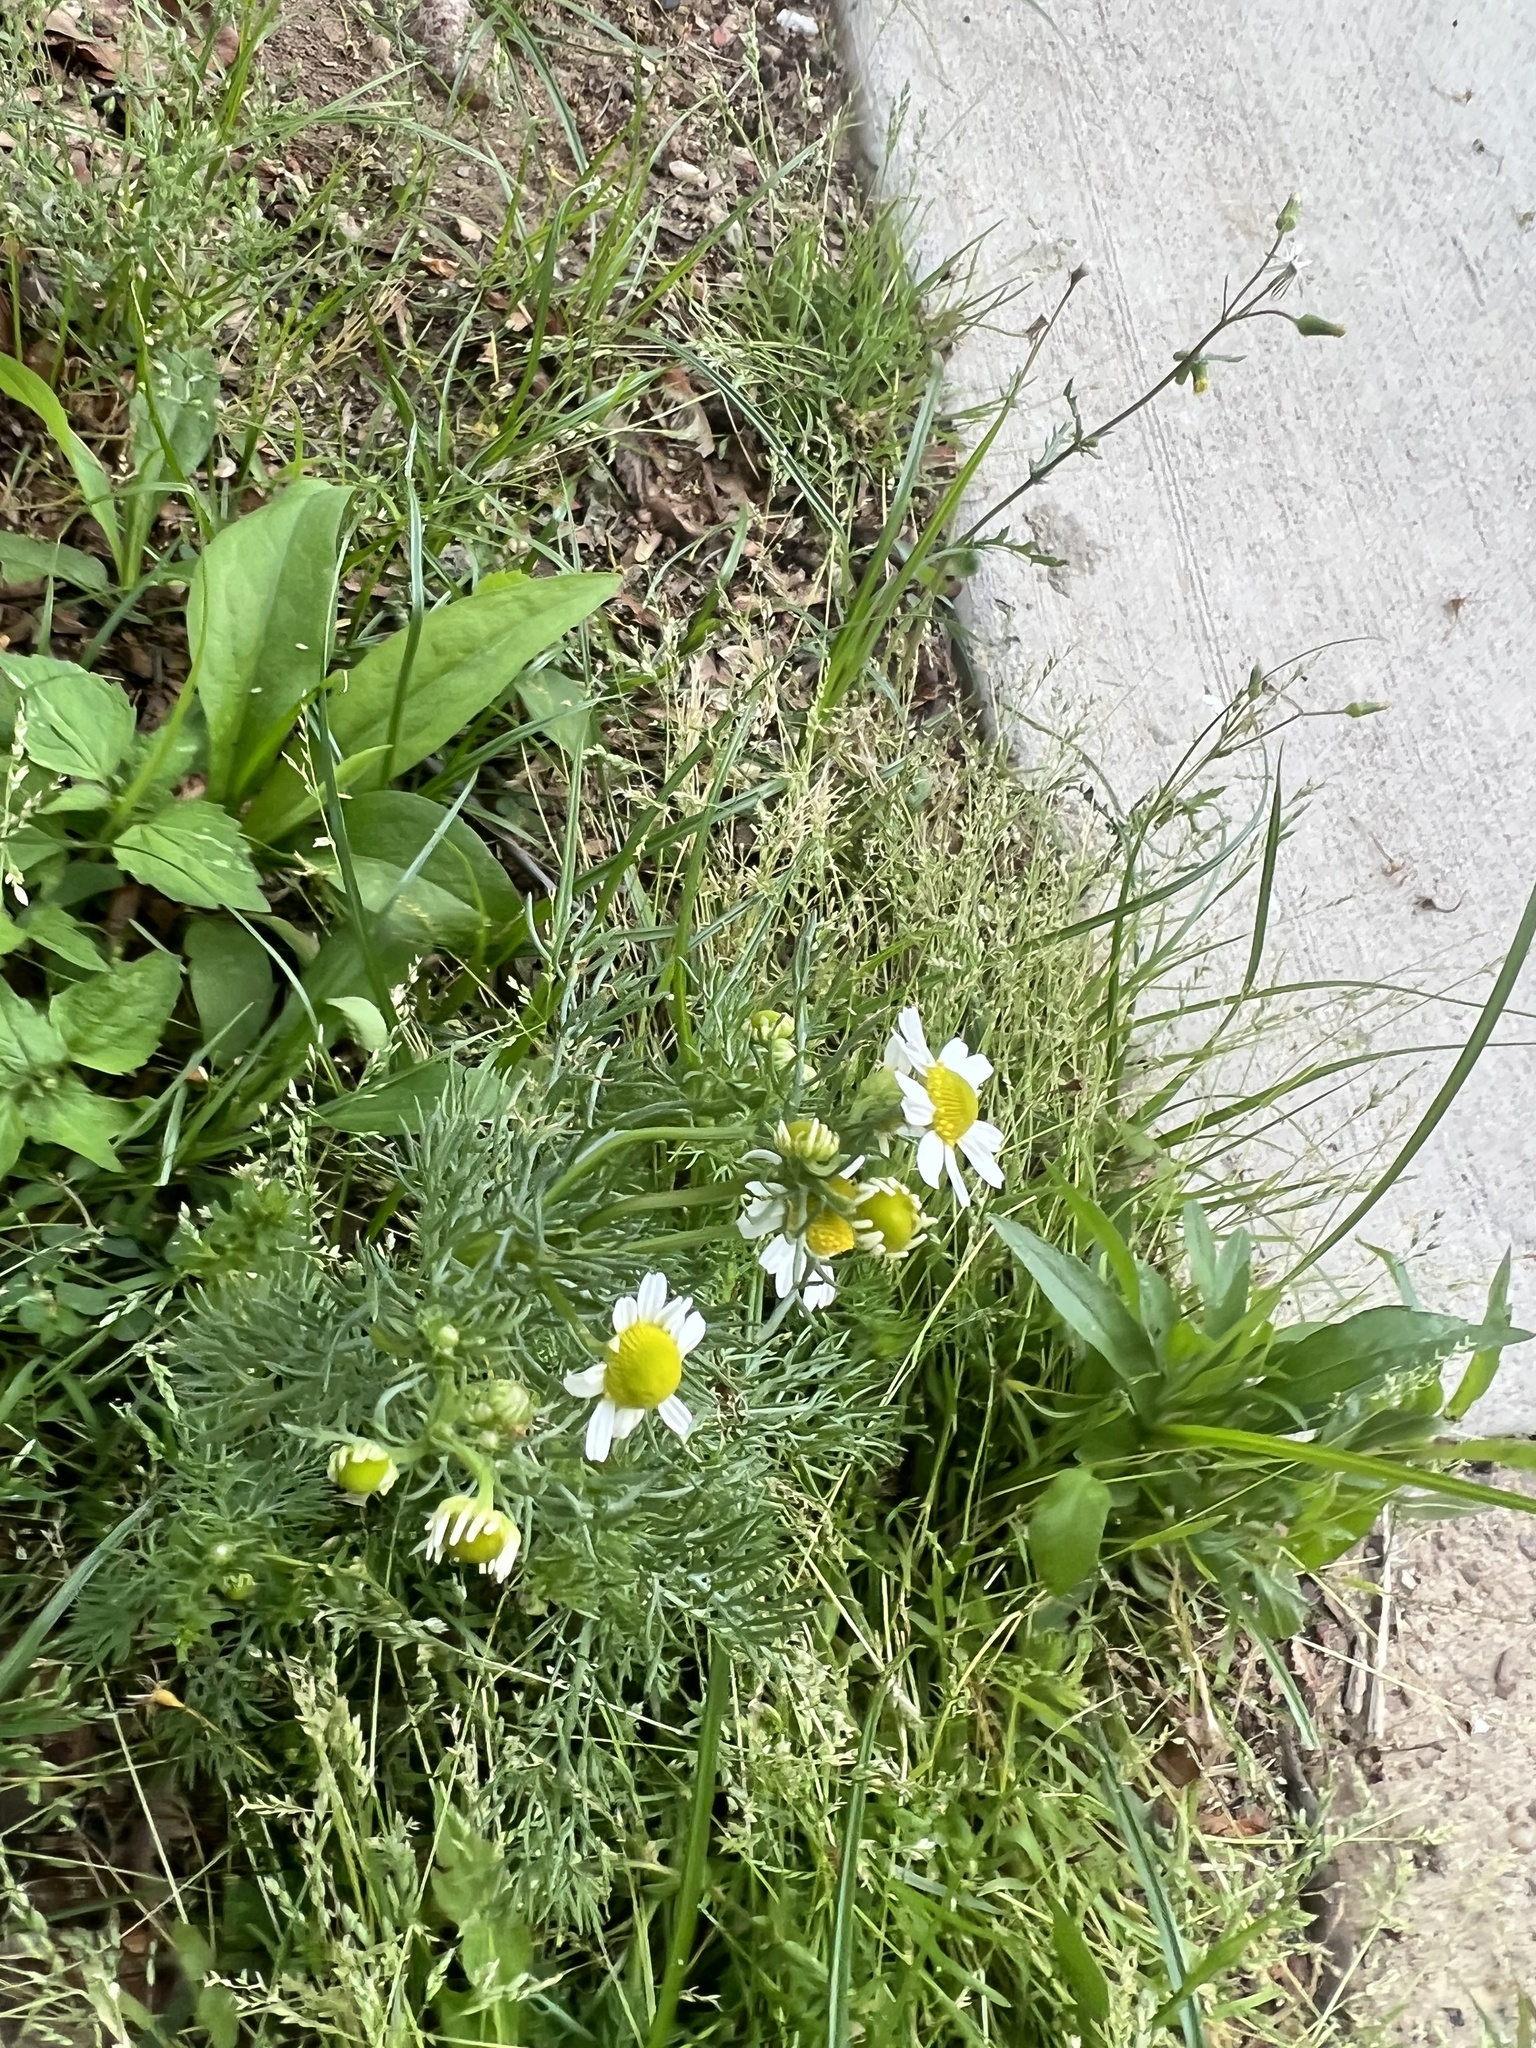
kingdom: Plantae
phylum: Tracheophyta
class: Magnoliopsida
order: Asterales
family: Asteraceae
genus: Matricaria
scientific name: Matricaria chamomilla
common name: Scented mayweed
